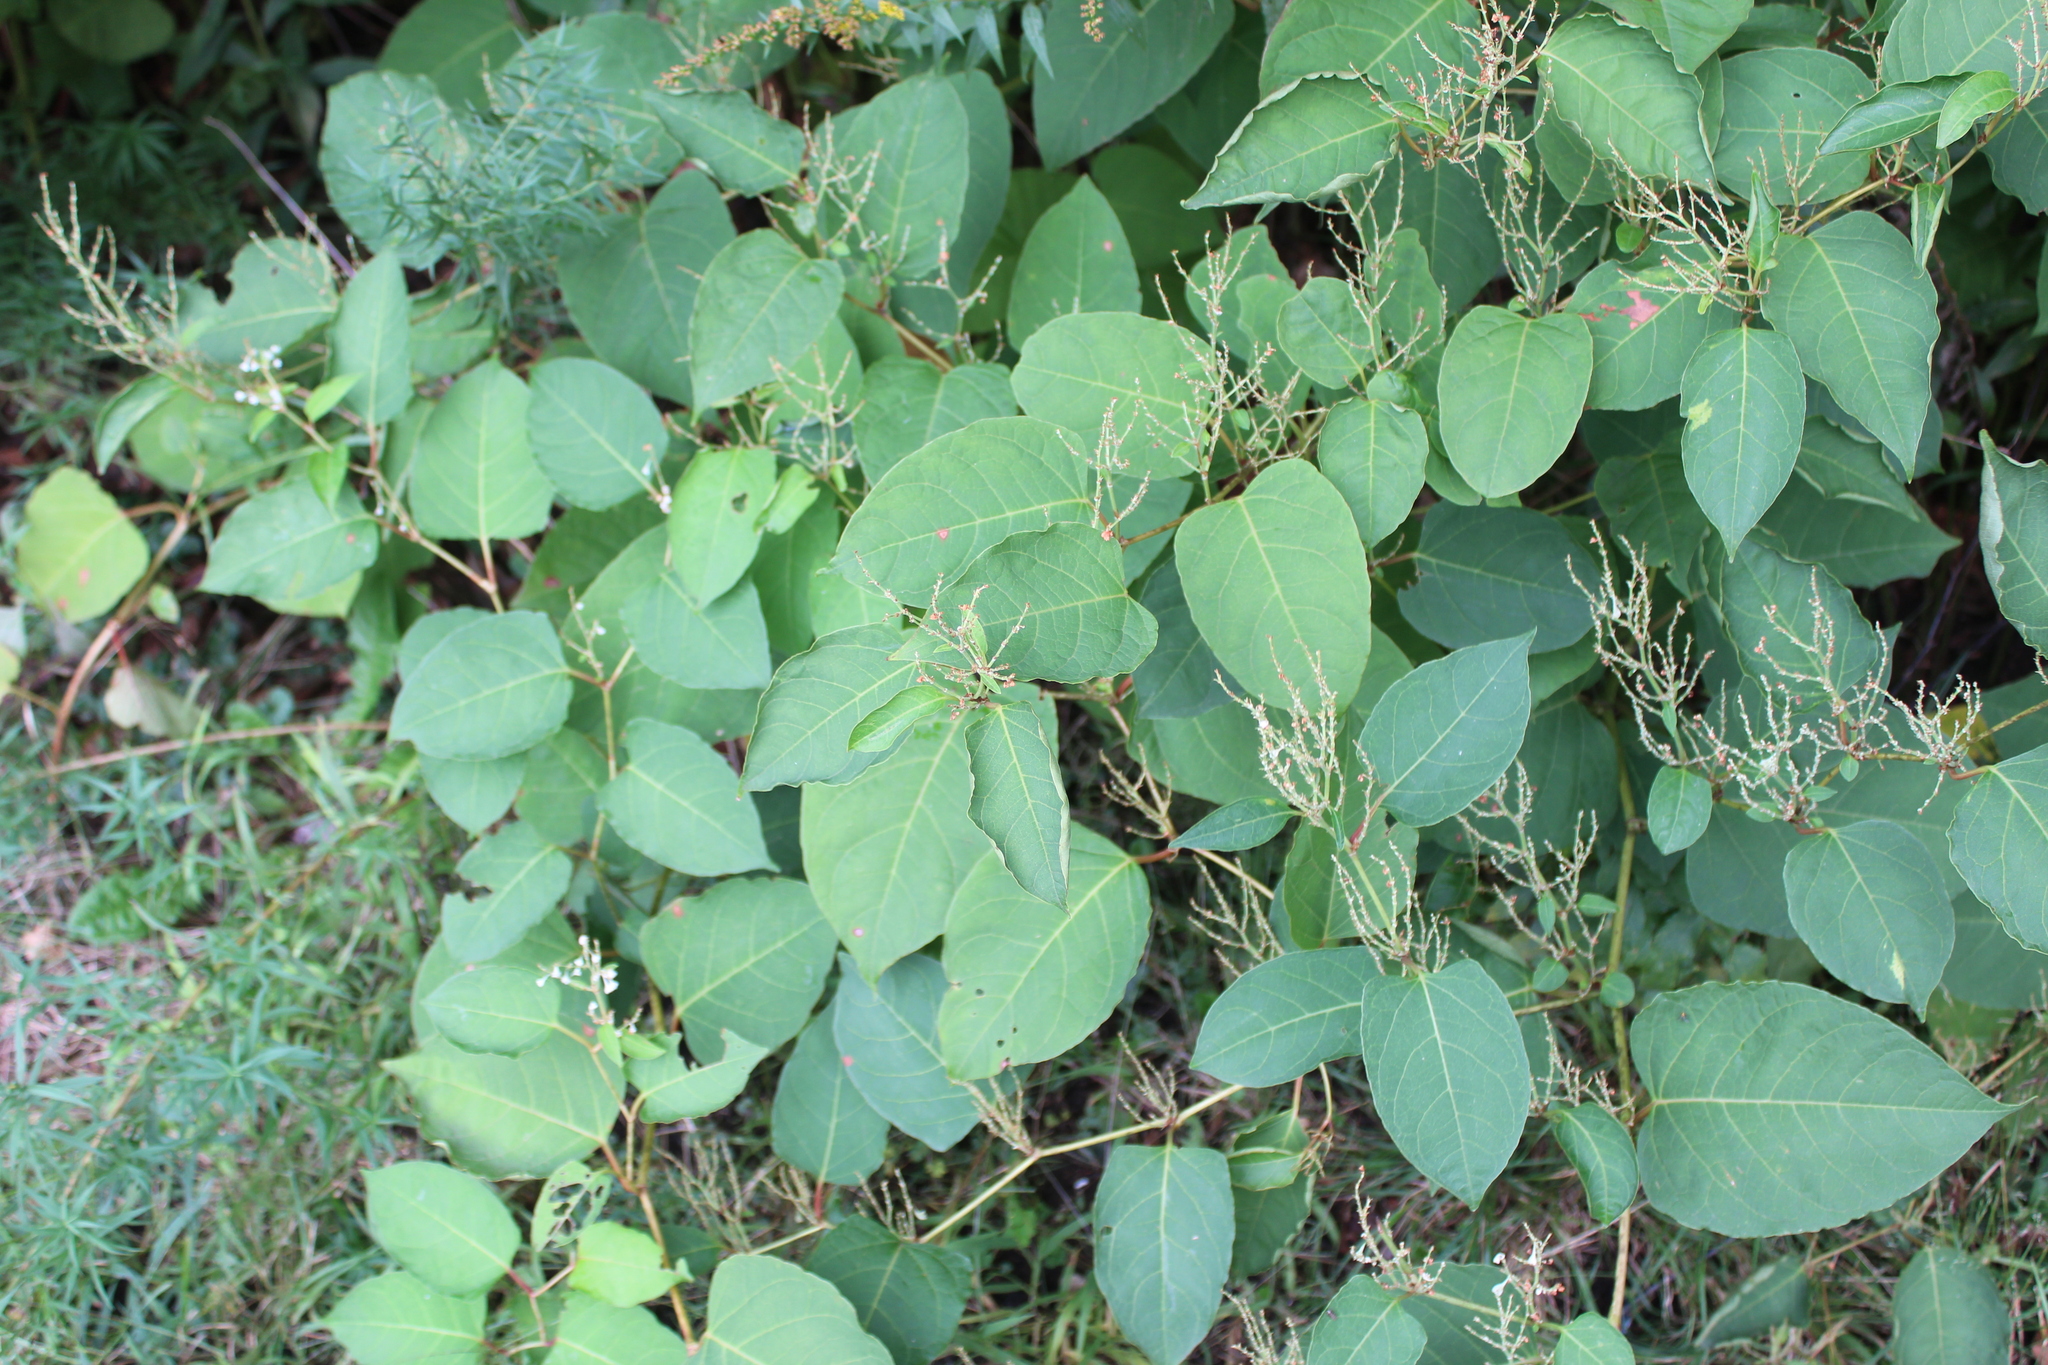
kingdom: Plantae
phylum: Tracheophyta
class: Magnoliopsida
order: Caryophyllales
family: Polygonaceae
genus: Reynoutria
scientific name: Reynoutria japonica
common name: Japanese knotweed
